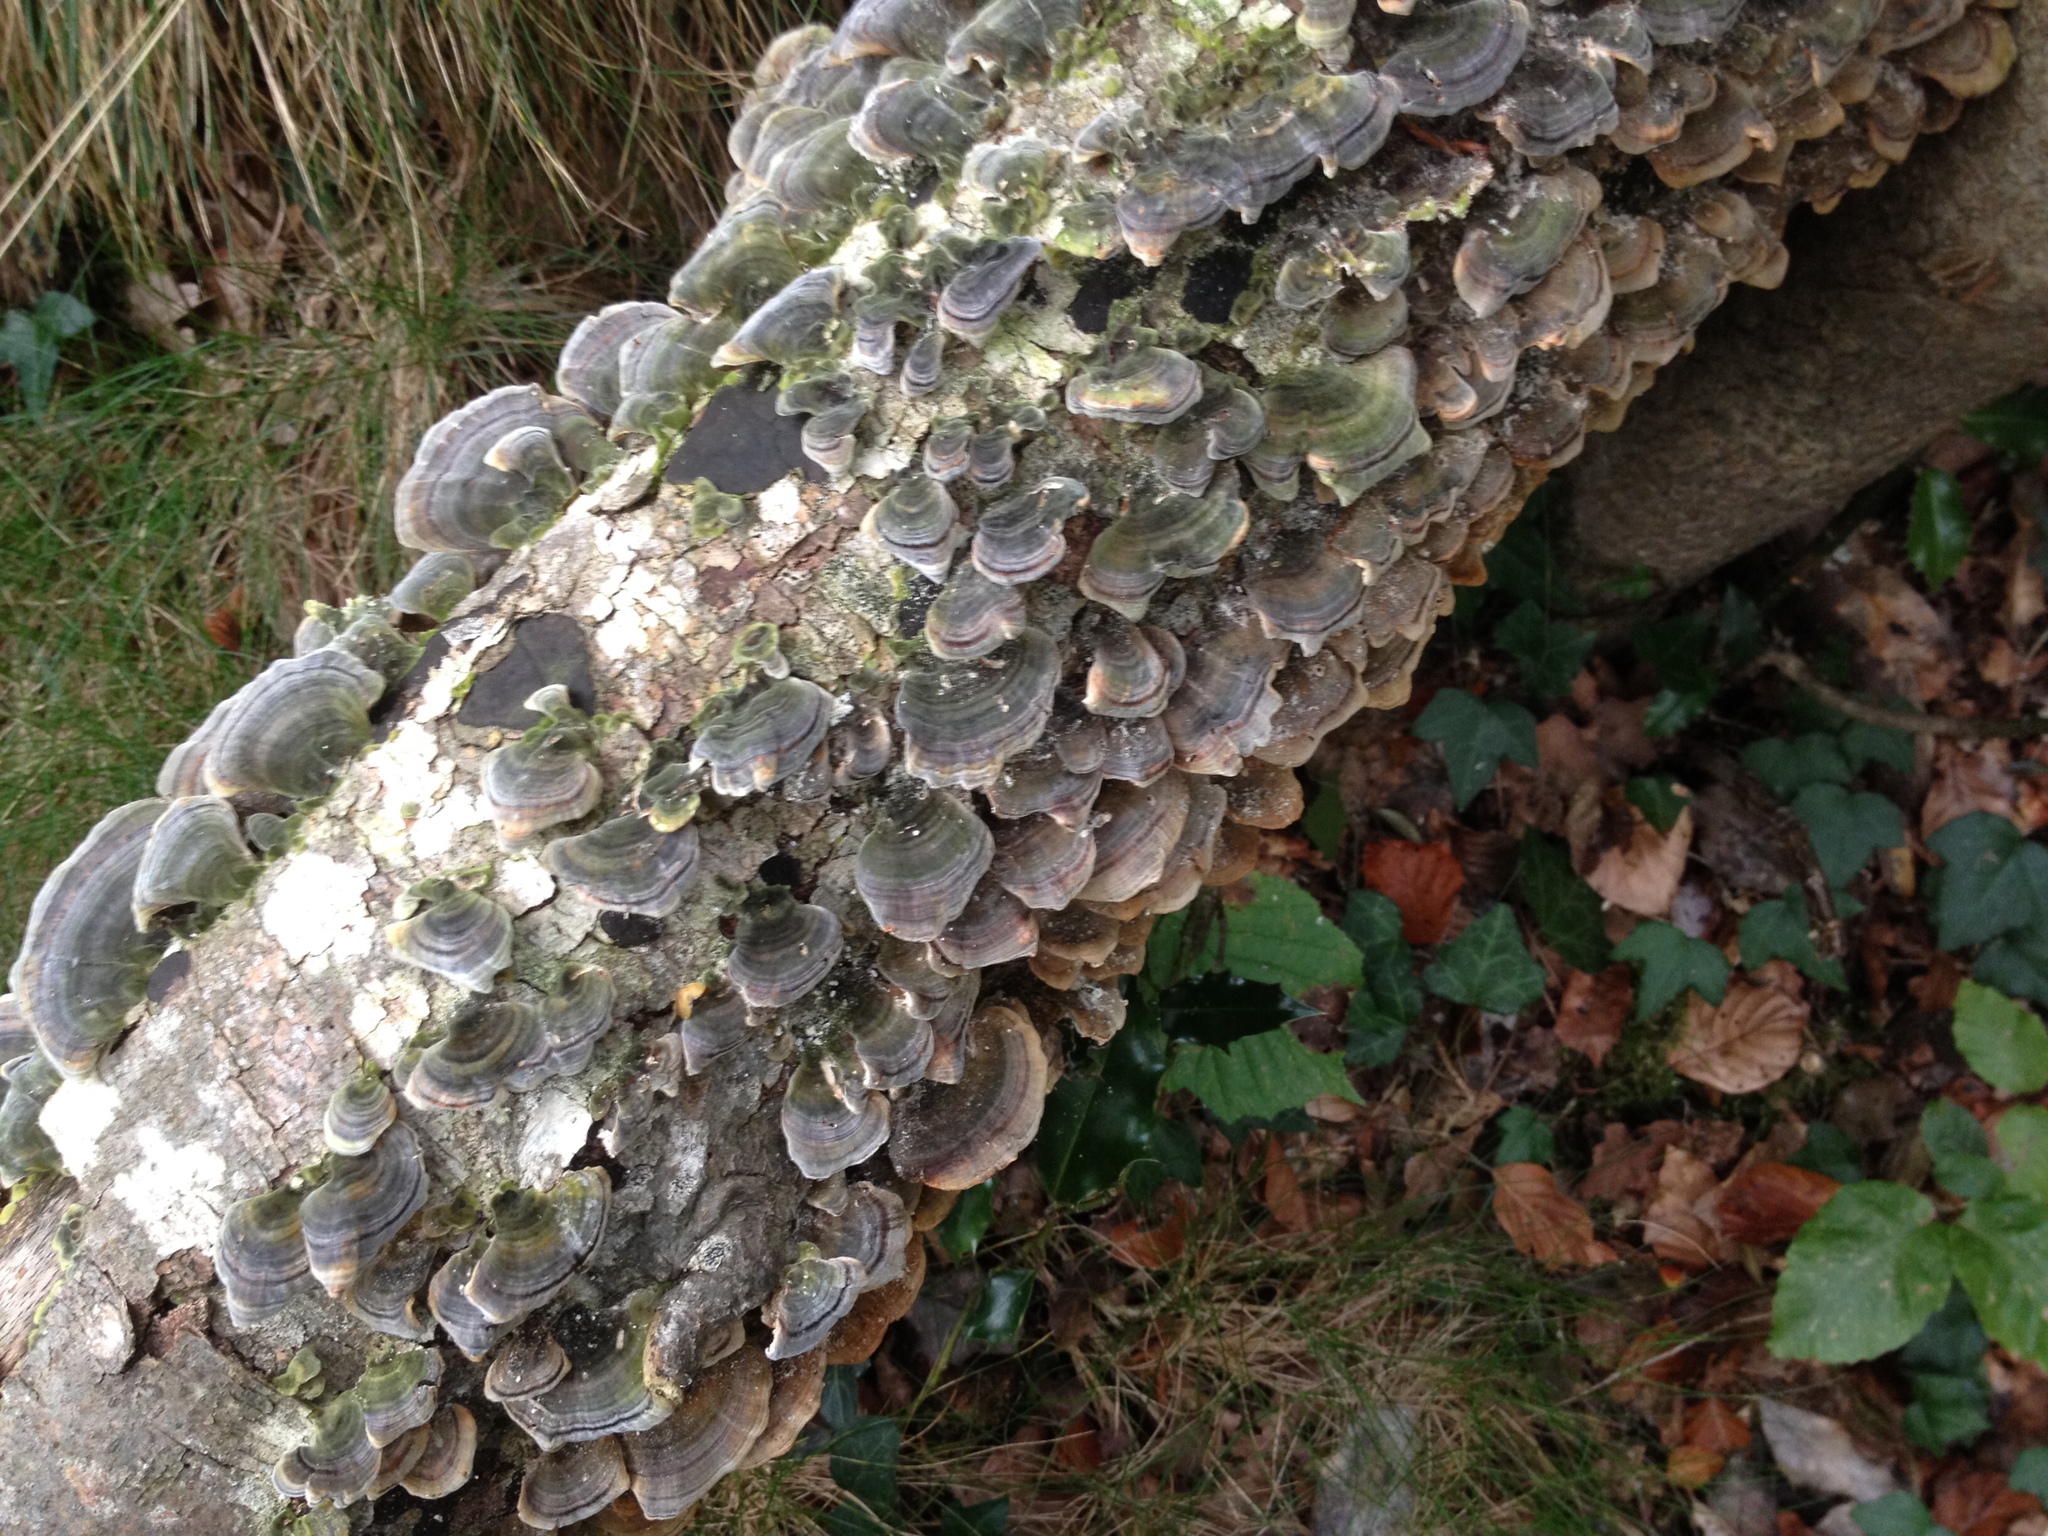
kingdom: Fungi
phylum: Basidiomycota
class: Agaricomycetes
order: Polyporales
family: Polyporaceae
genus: Trametes
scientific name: Trametes versicolor
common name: Turkeytail
